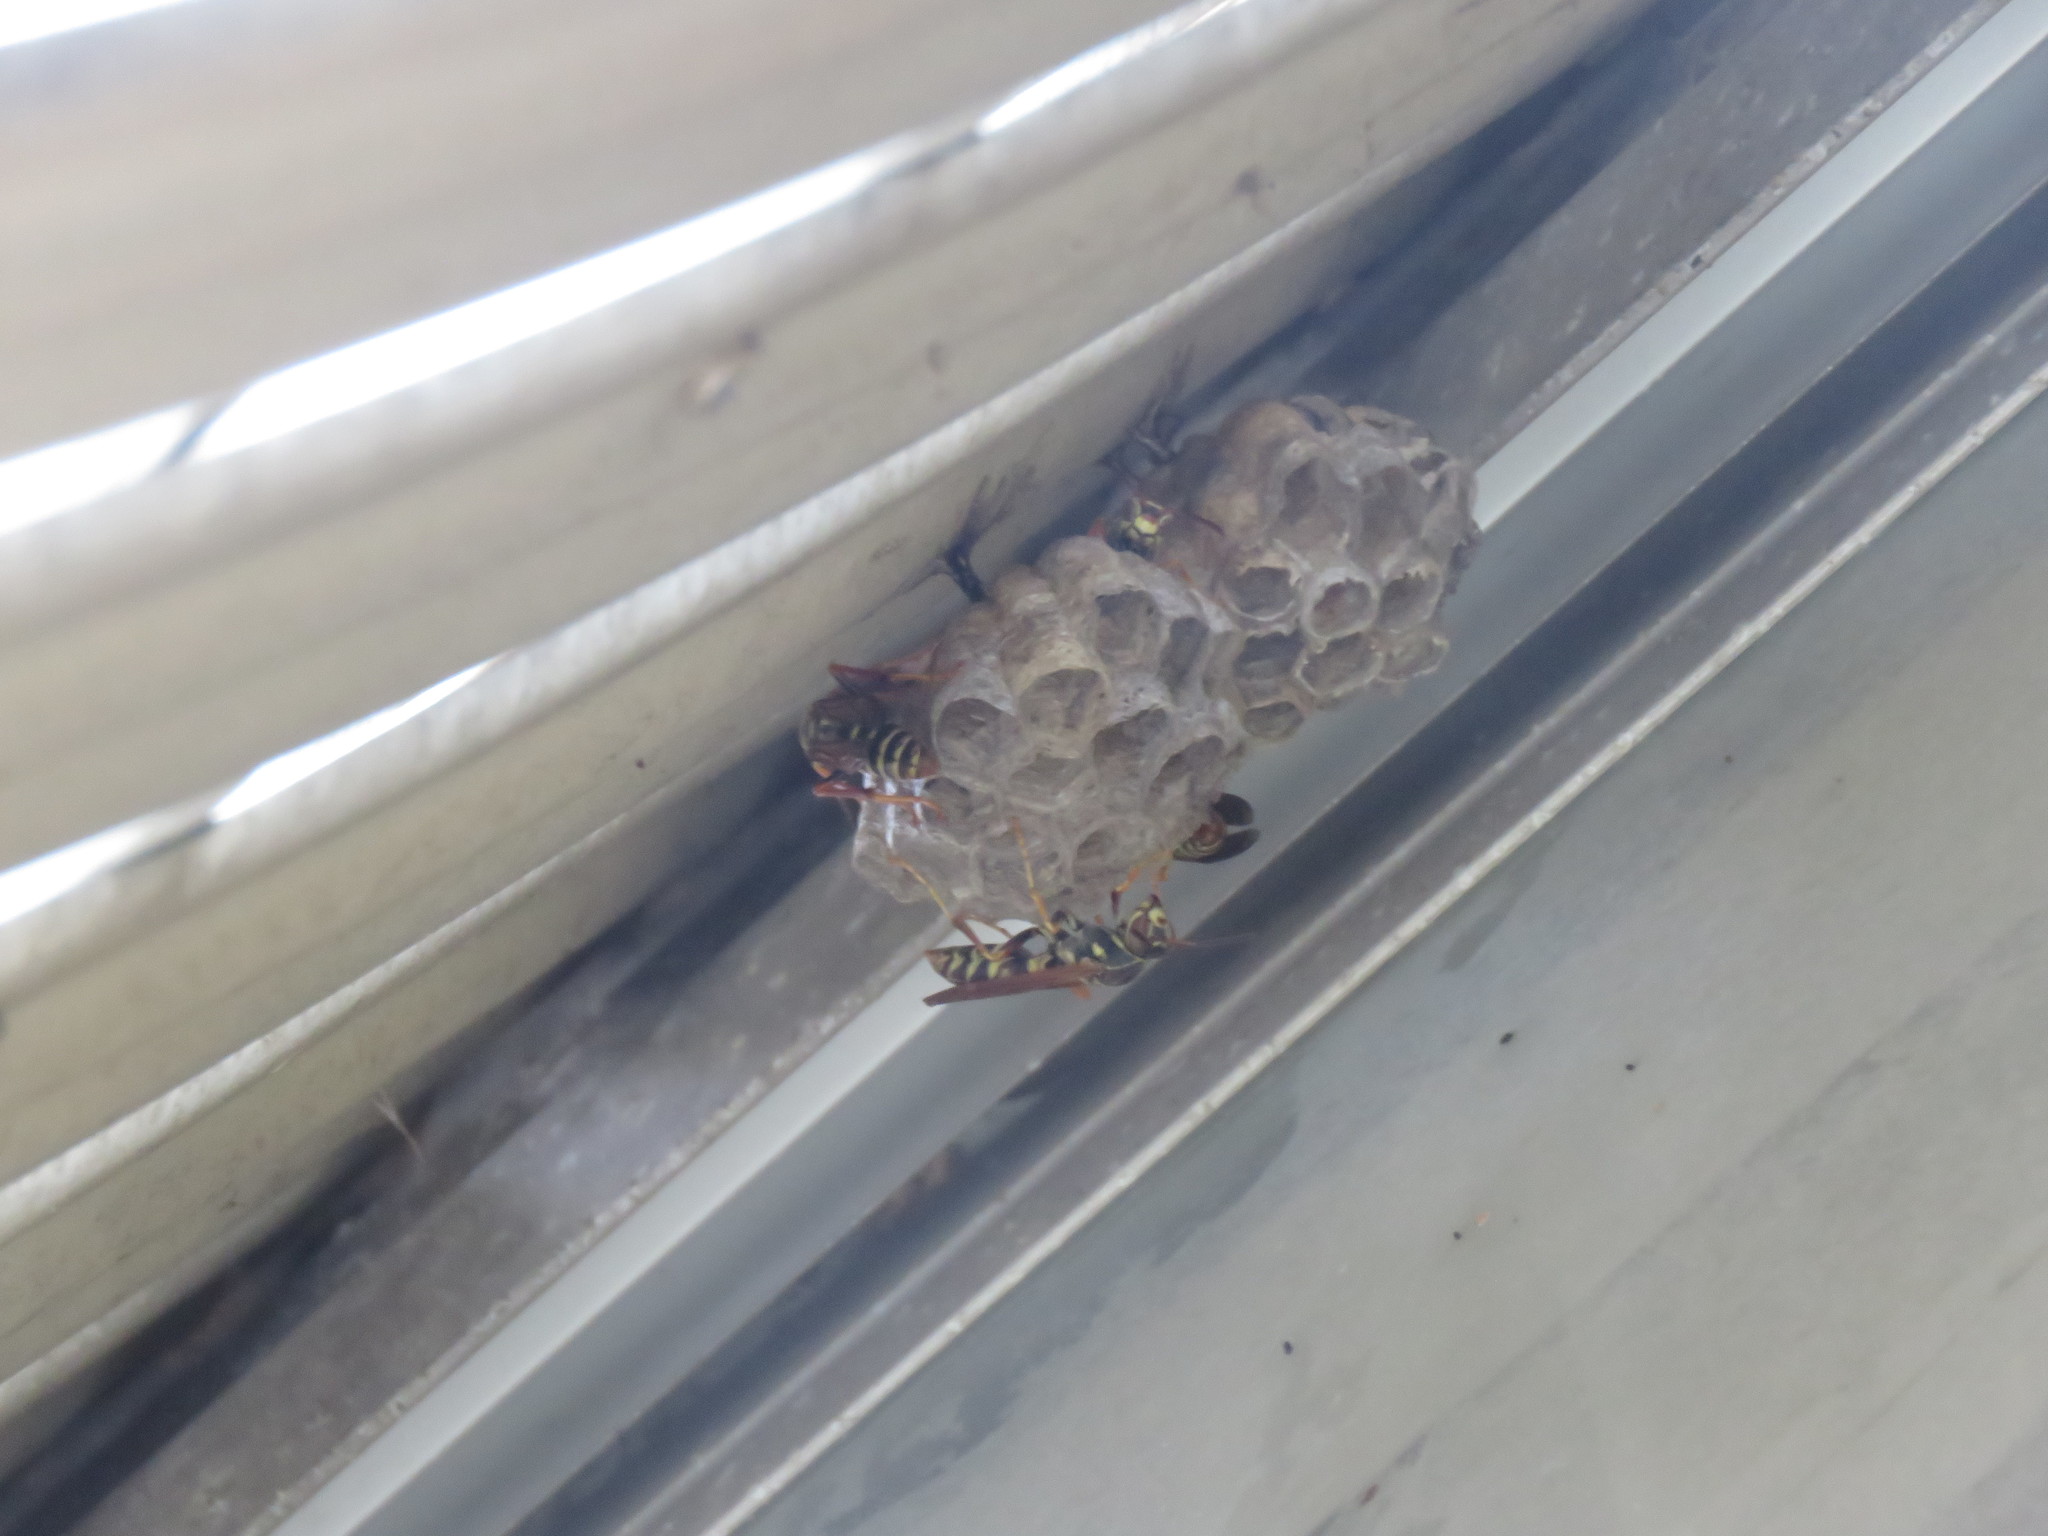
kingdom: Animalia
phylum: Arthropoda
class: Insecta
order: Hymenoptera
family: Eumenidae
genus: Polistes
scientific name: Polistes fuscatus
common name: Dark paper wasp
